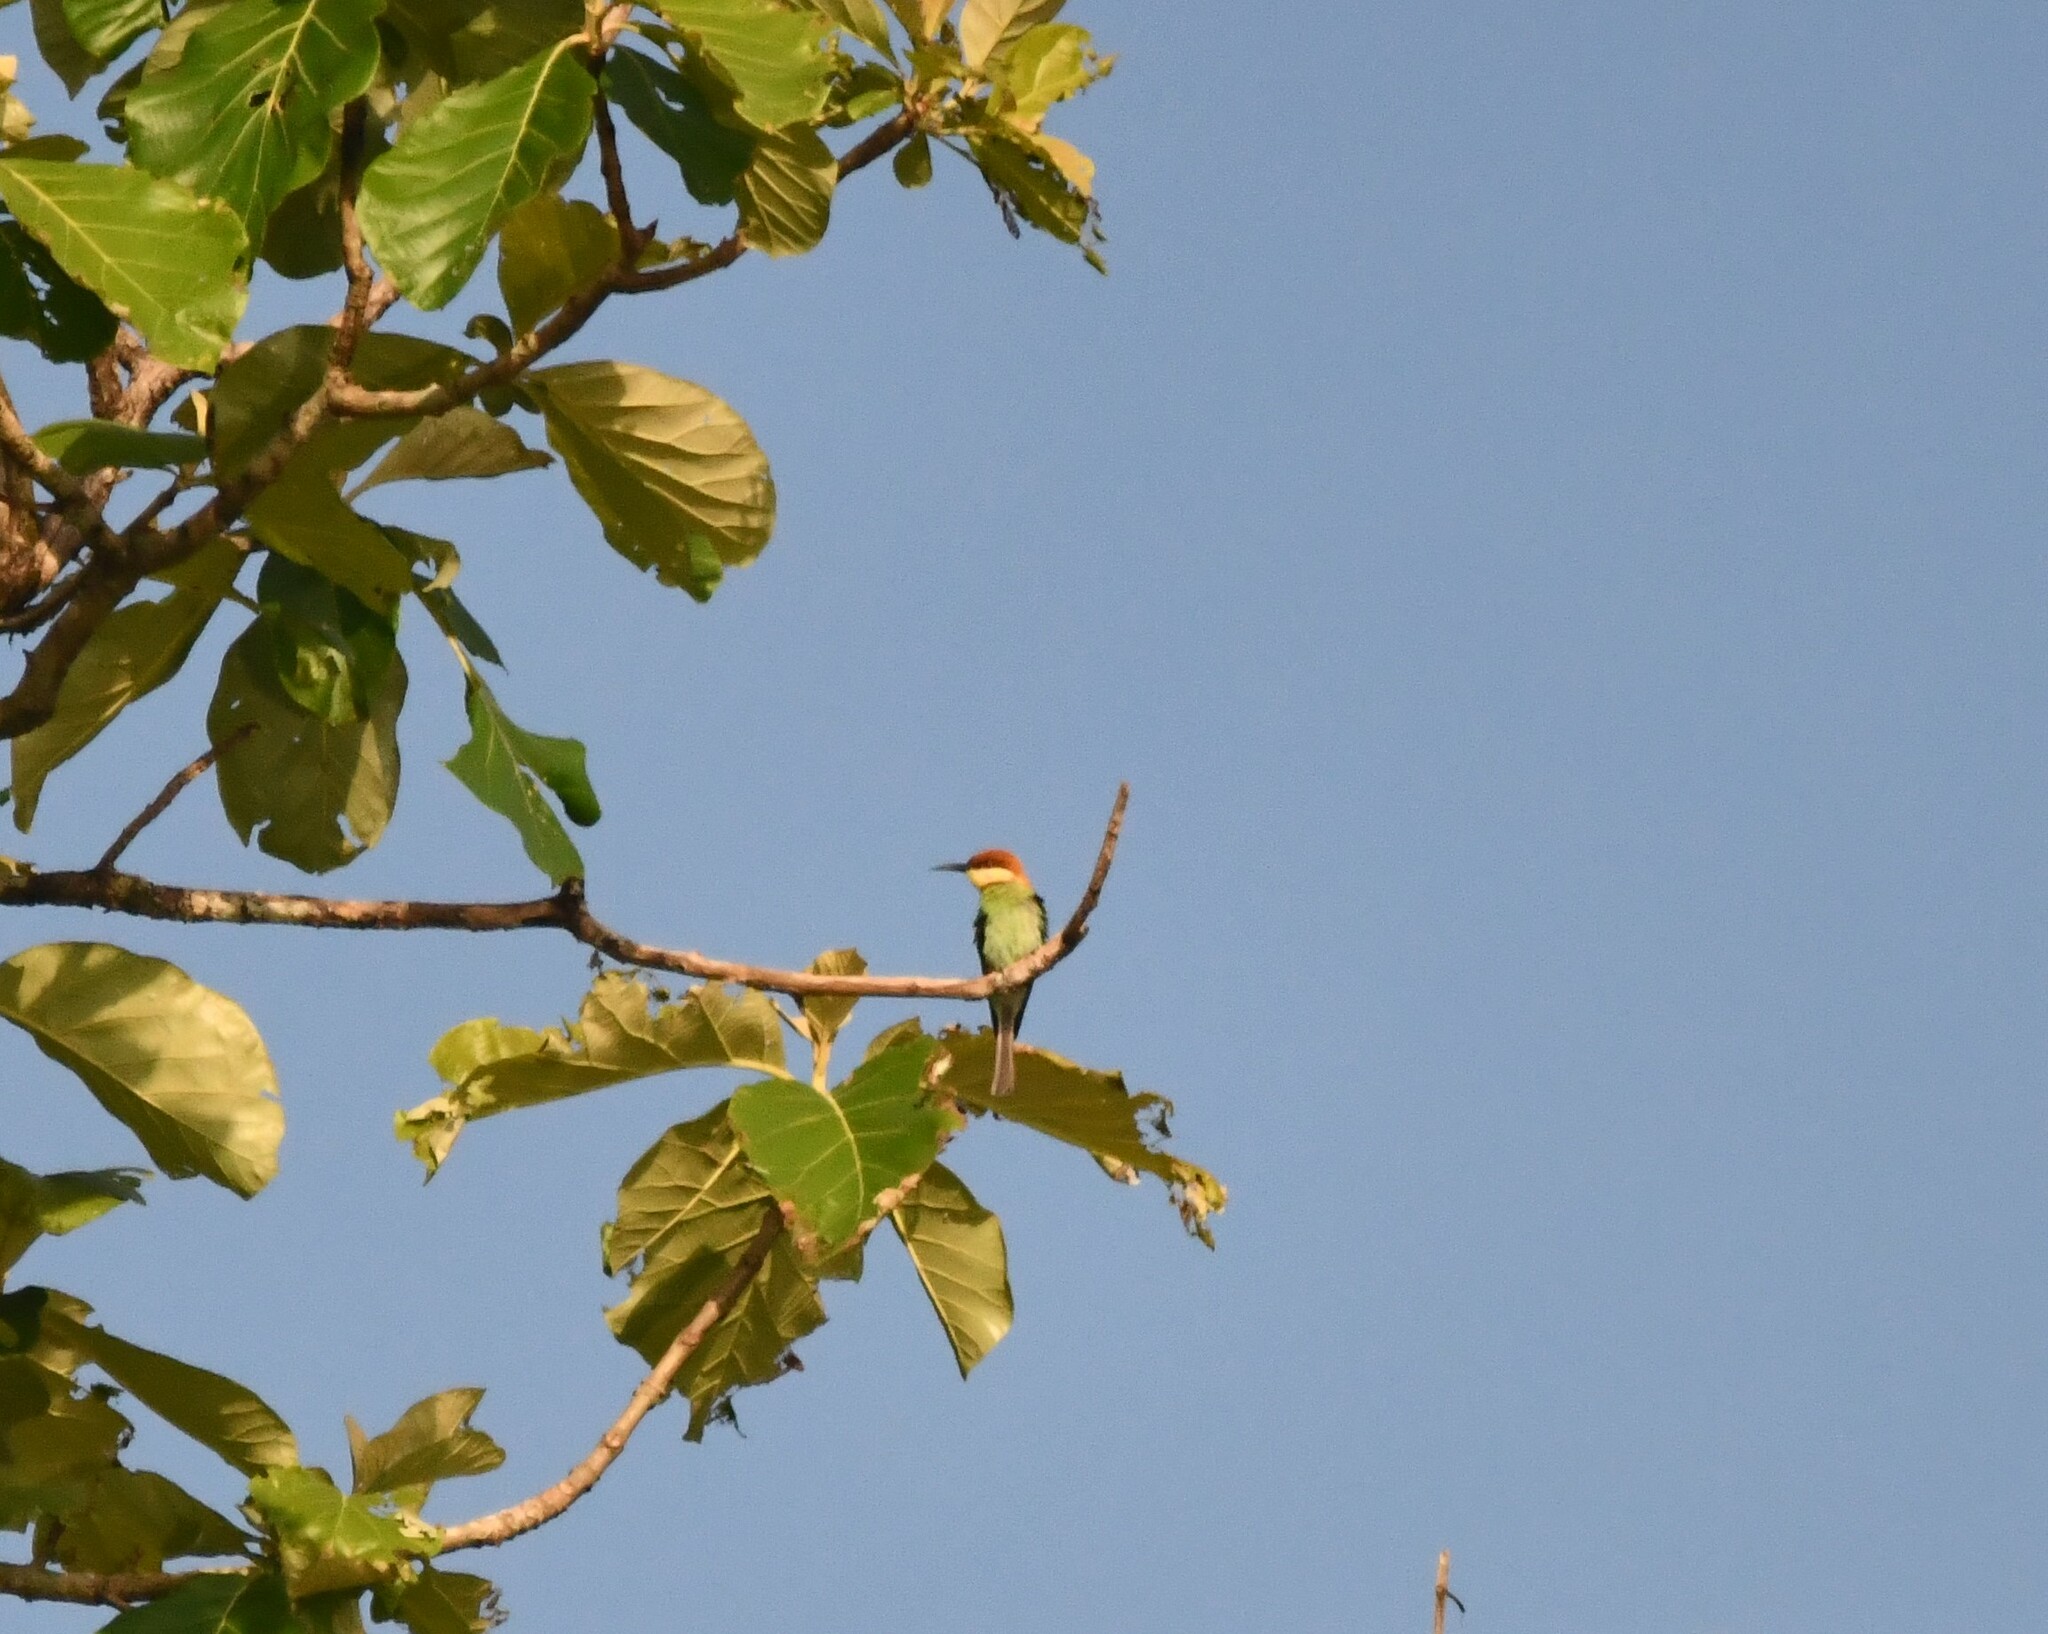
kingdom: Animalia
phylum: Chordata
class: Aves
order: Coraciiformes
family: Meropidae
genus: Merops
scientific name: Merops leschenaulti
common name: Chestnut-headed bee-eater
